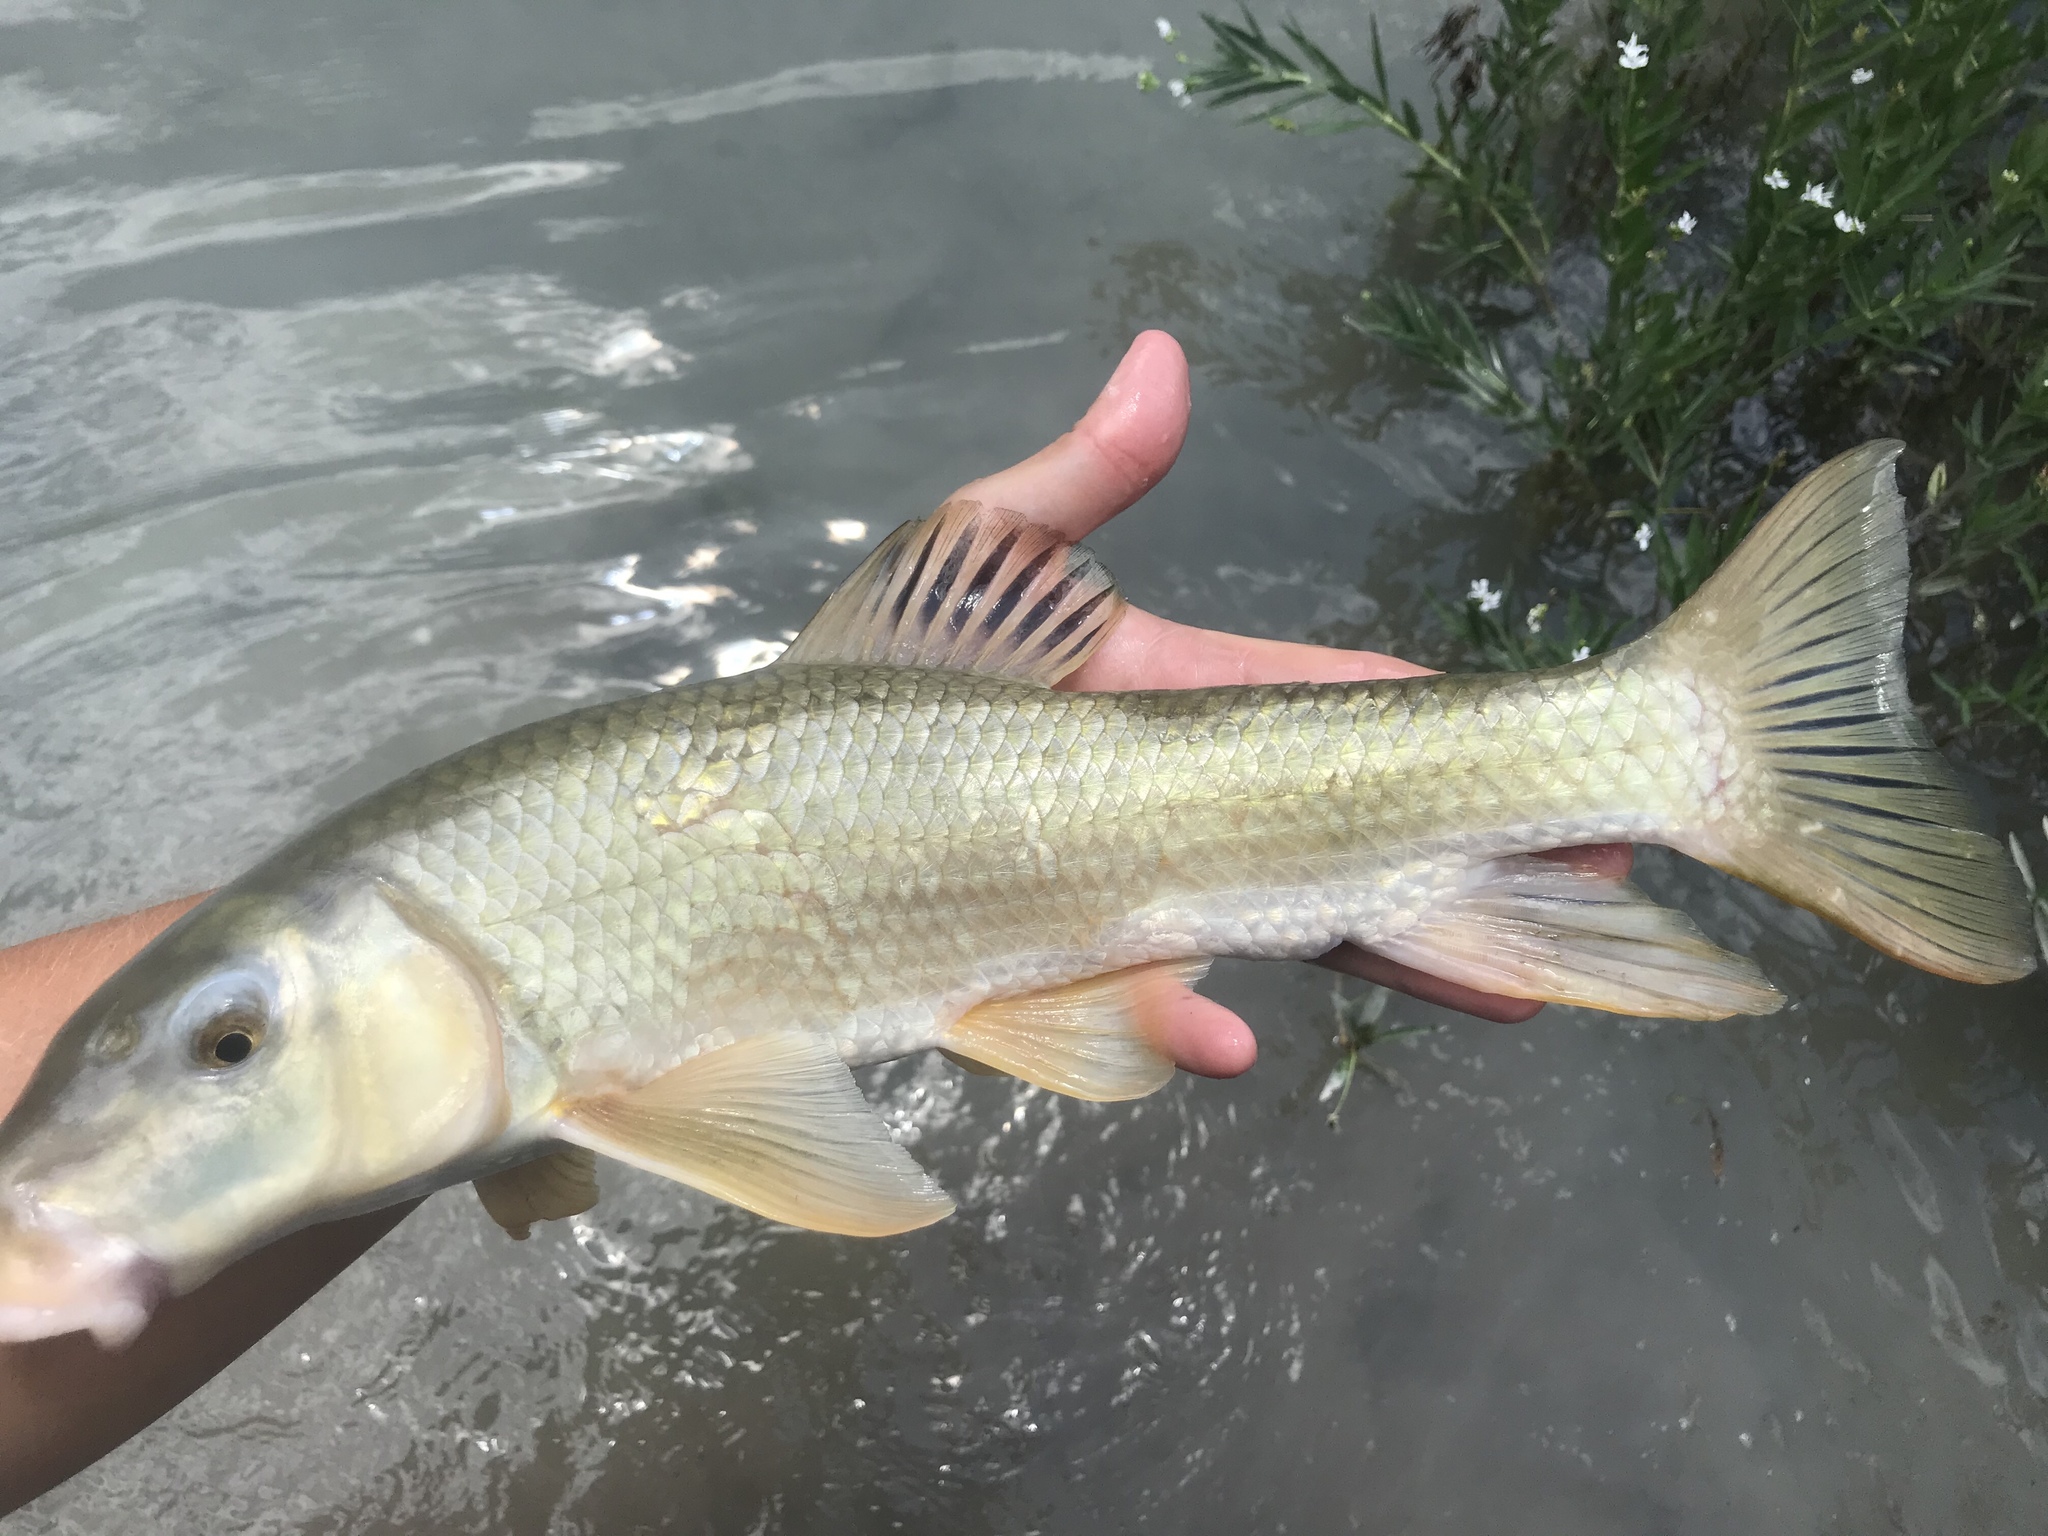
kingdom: Animalia
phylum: Chordata
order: Cypriniformes
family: Catostomidae
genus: Moxostoma
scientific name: Moxostoma congestum
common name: Gray redhorse
